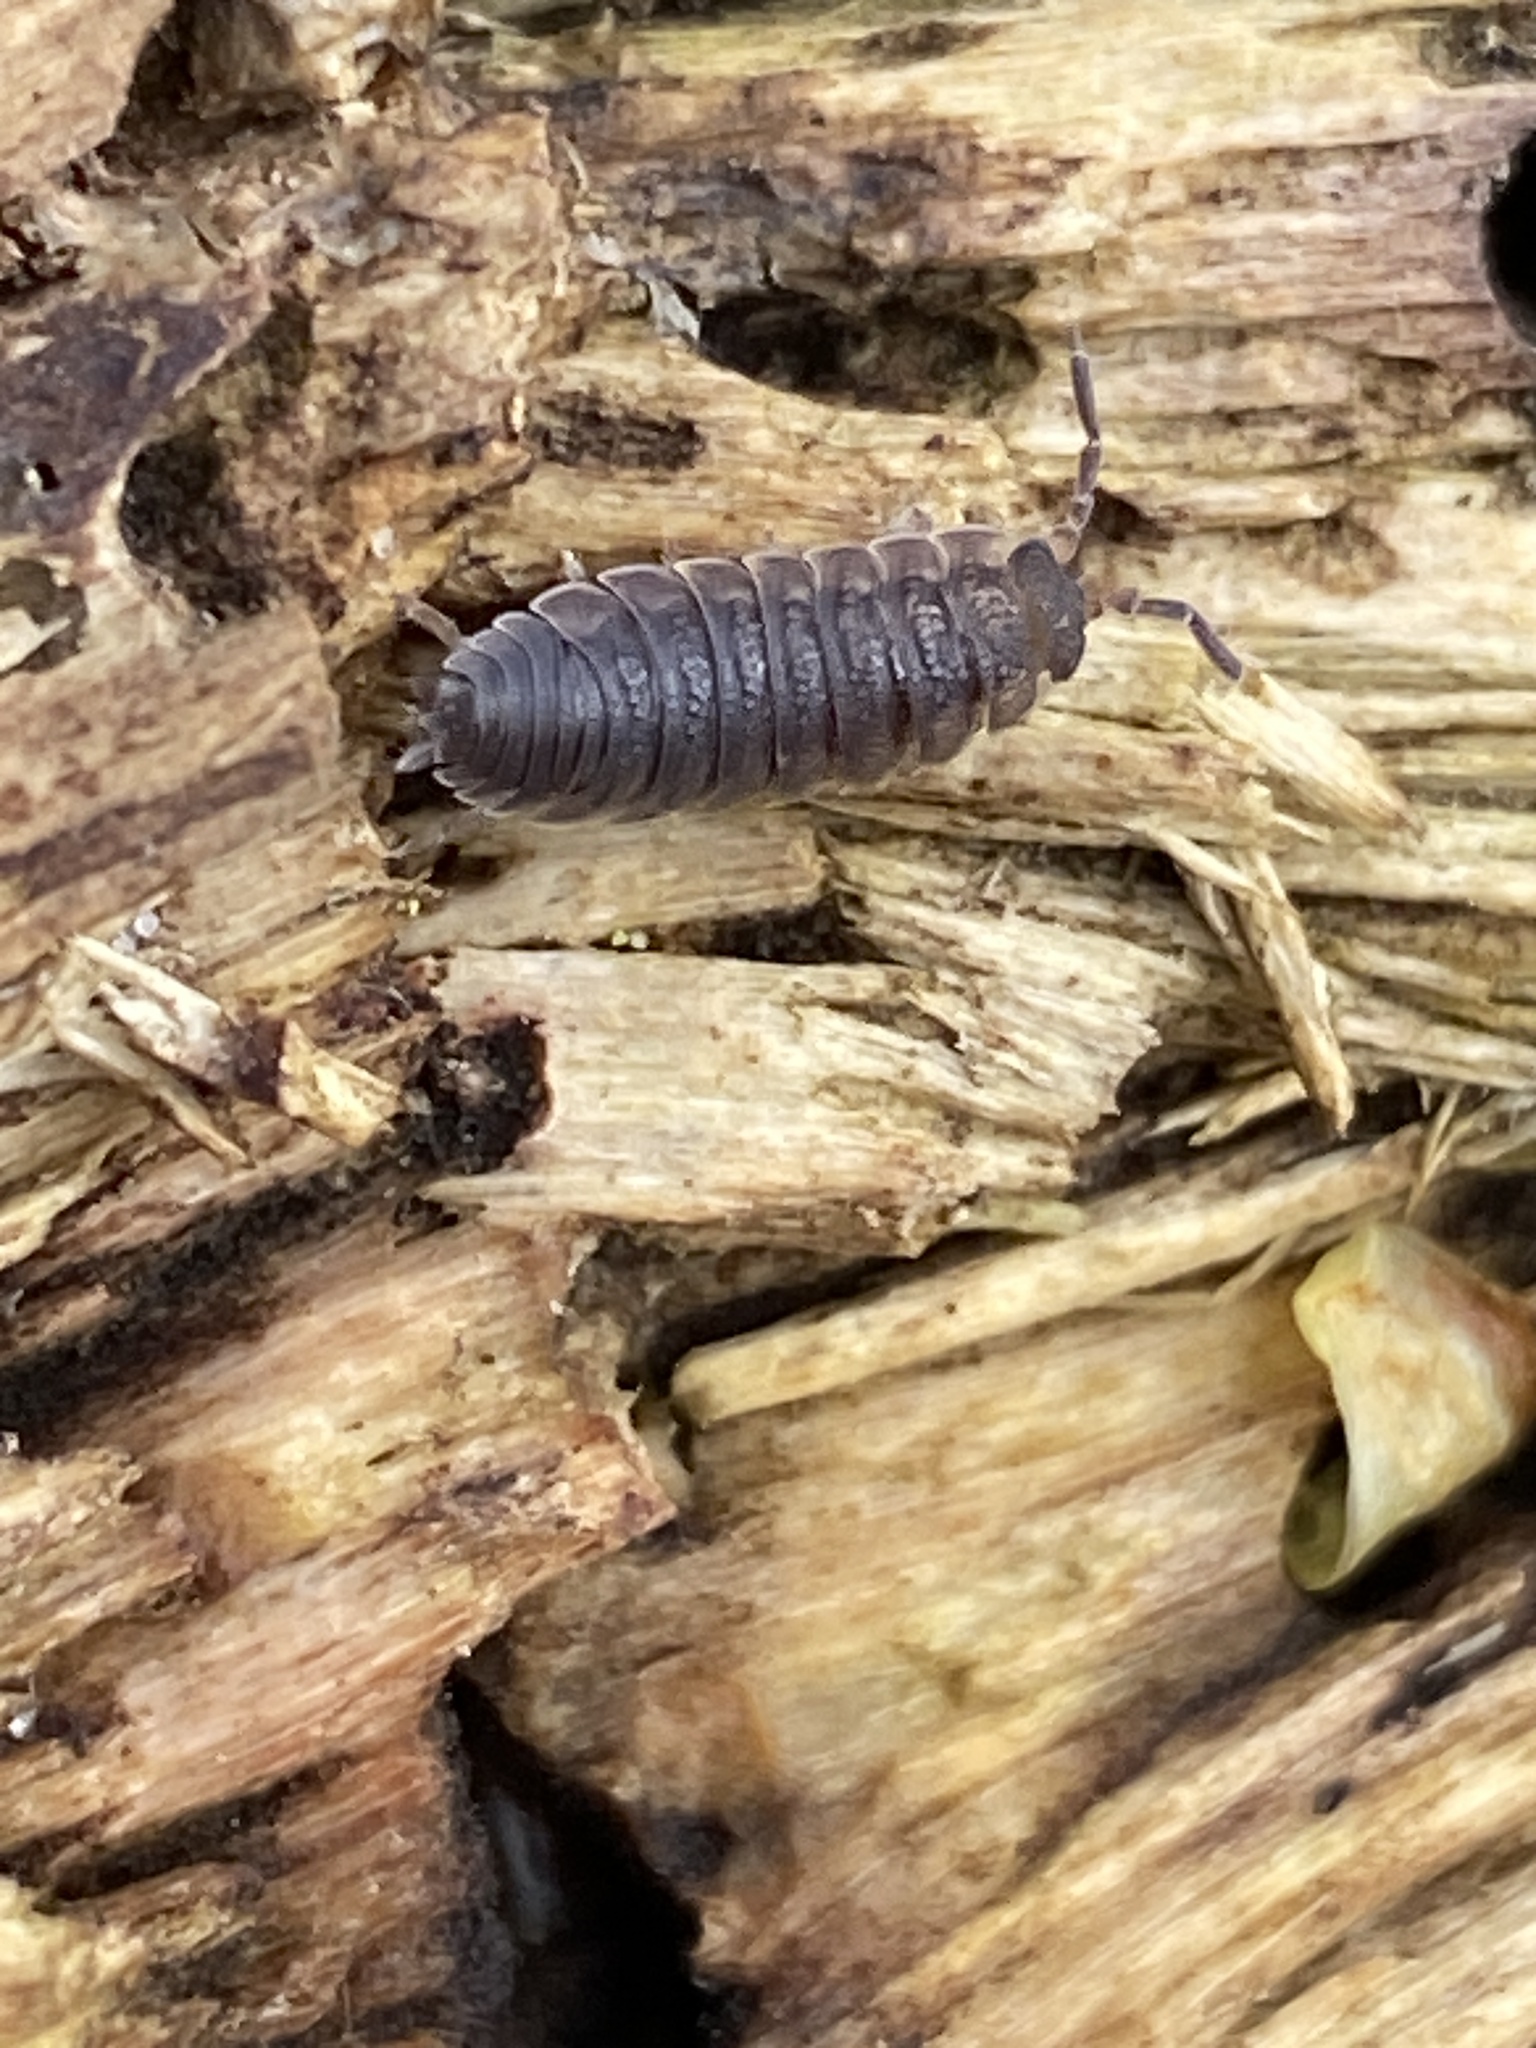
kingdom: Animalia
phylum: Arthropoda
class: Malacostraca
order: Isopoda
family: Porcellionidae
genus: Porcellio
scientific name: Porcellio scaber
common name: Common rough woodlouse
